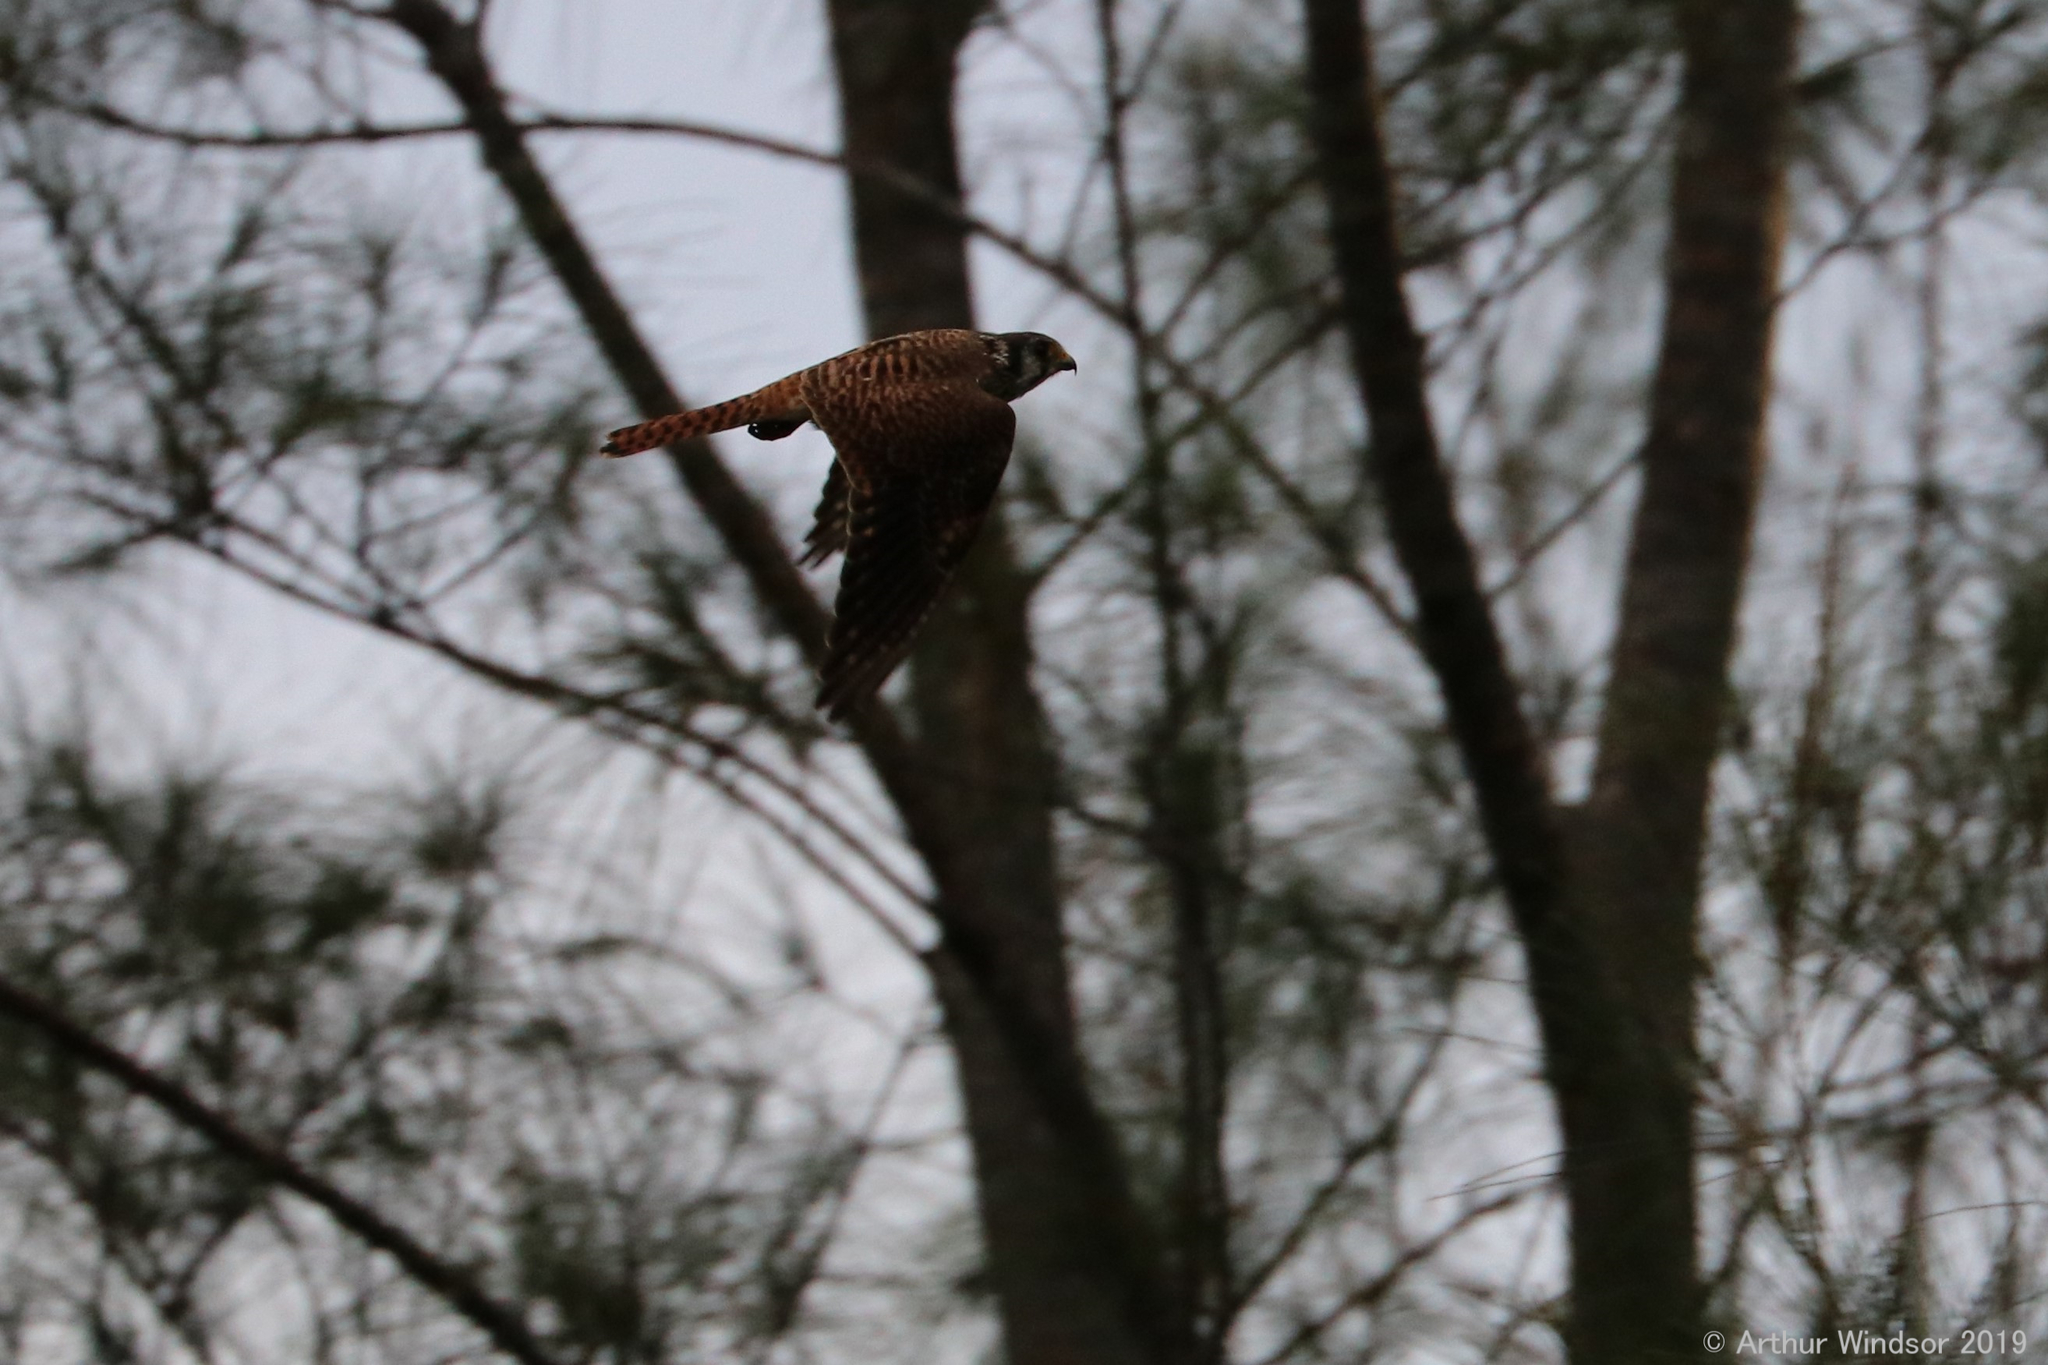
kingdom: Animalia
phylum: Chordata
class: Aves
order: Falconiformes
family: Falconidae
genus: Falco
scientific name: Falco sparverius
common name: American kestrel
